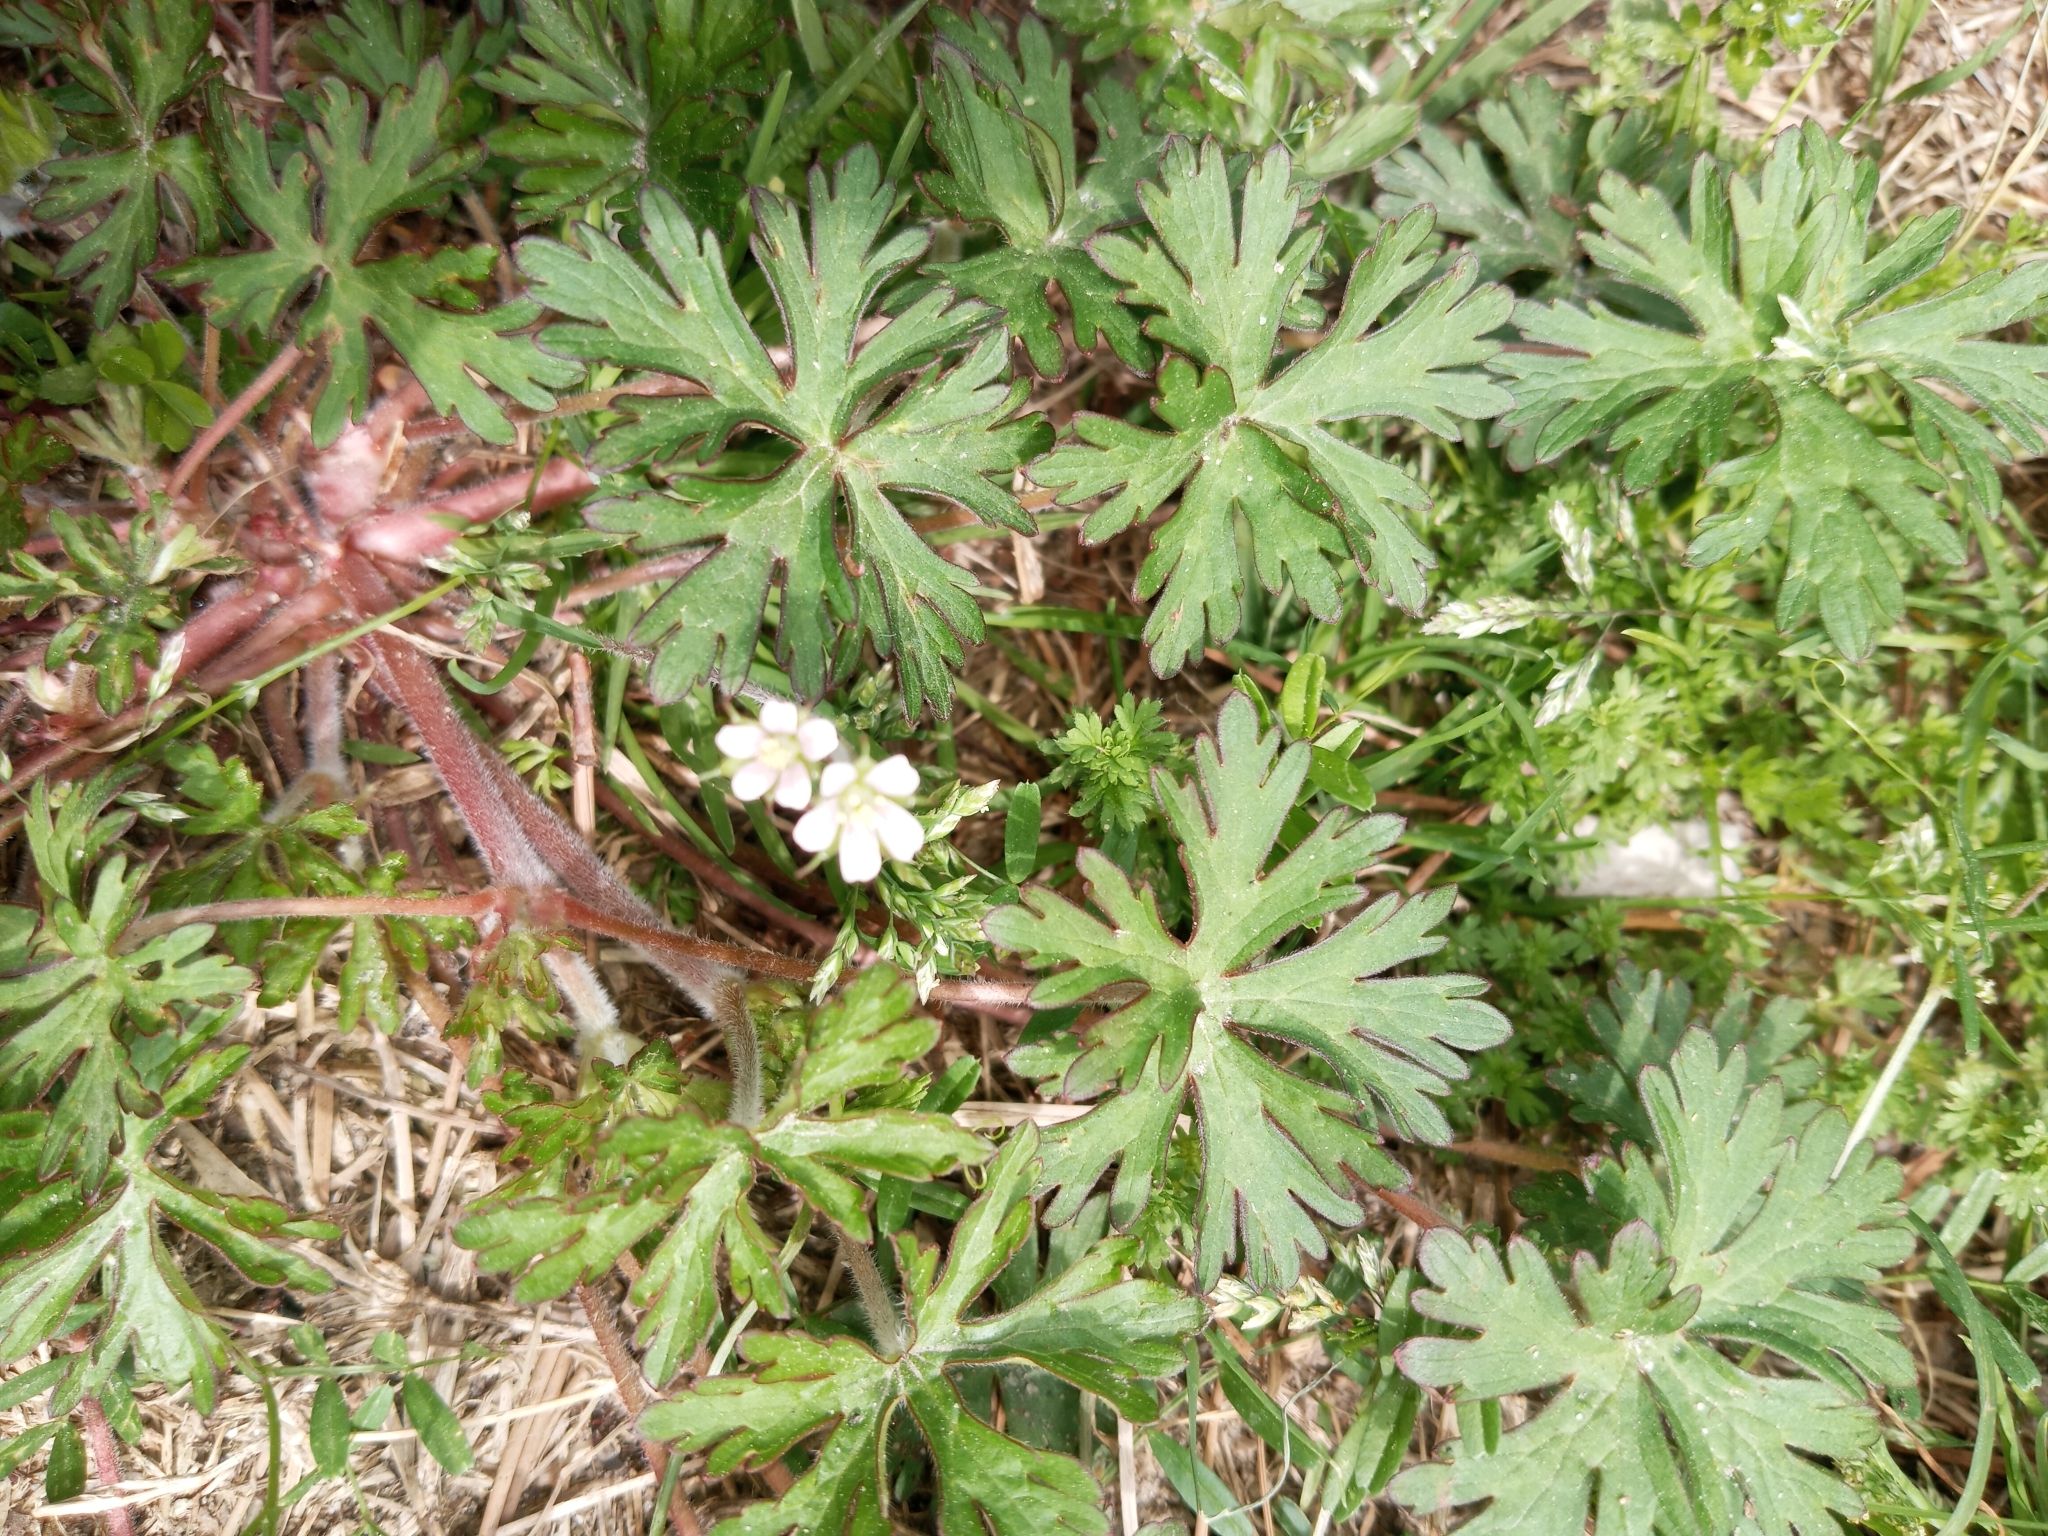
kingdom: Plantae
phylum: Tracheophyta
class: Magnoliopsida
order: Geraniales
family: Geraniaceae
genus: Geranium
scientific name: Geranium carolinianum
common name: Carolina crane's-bill
